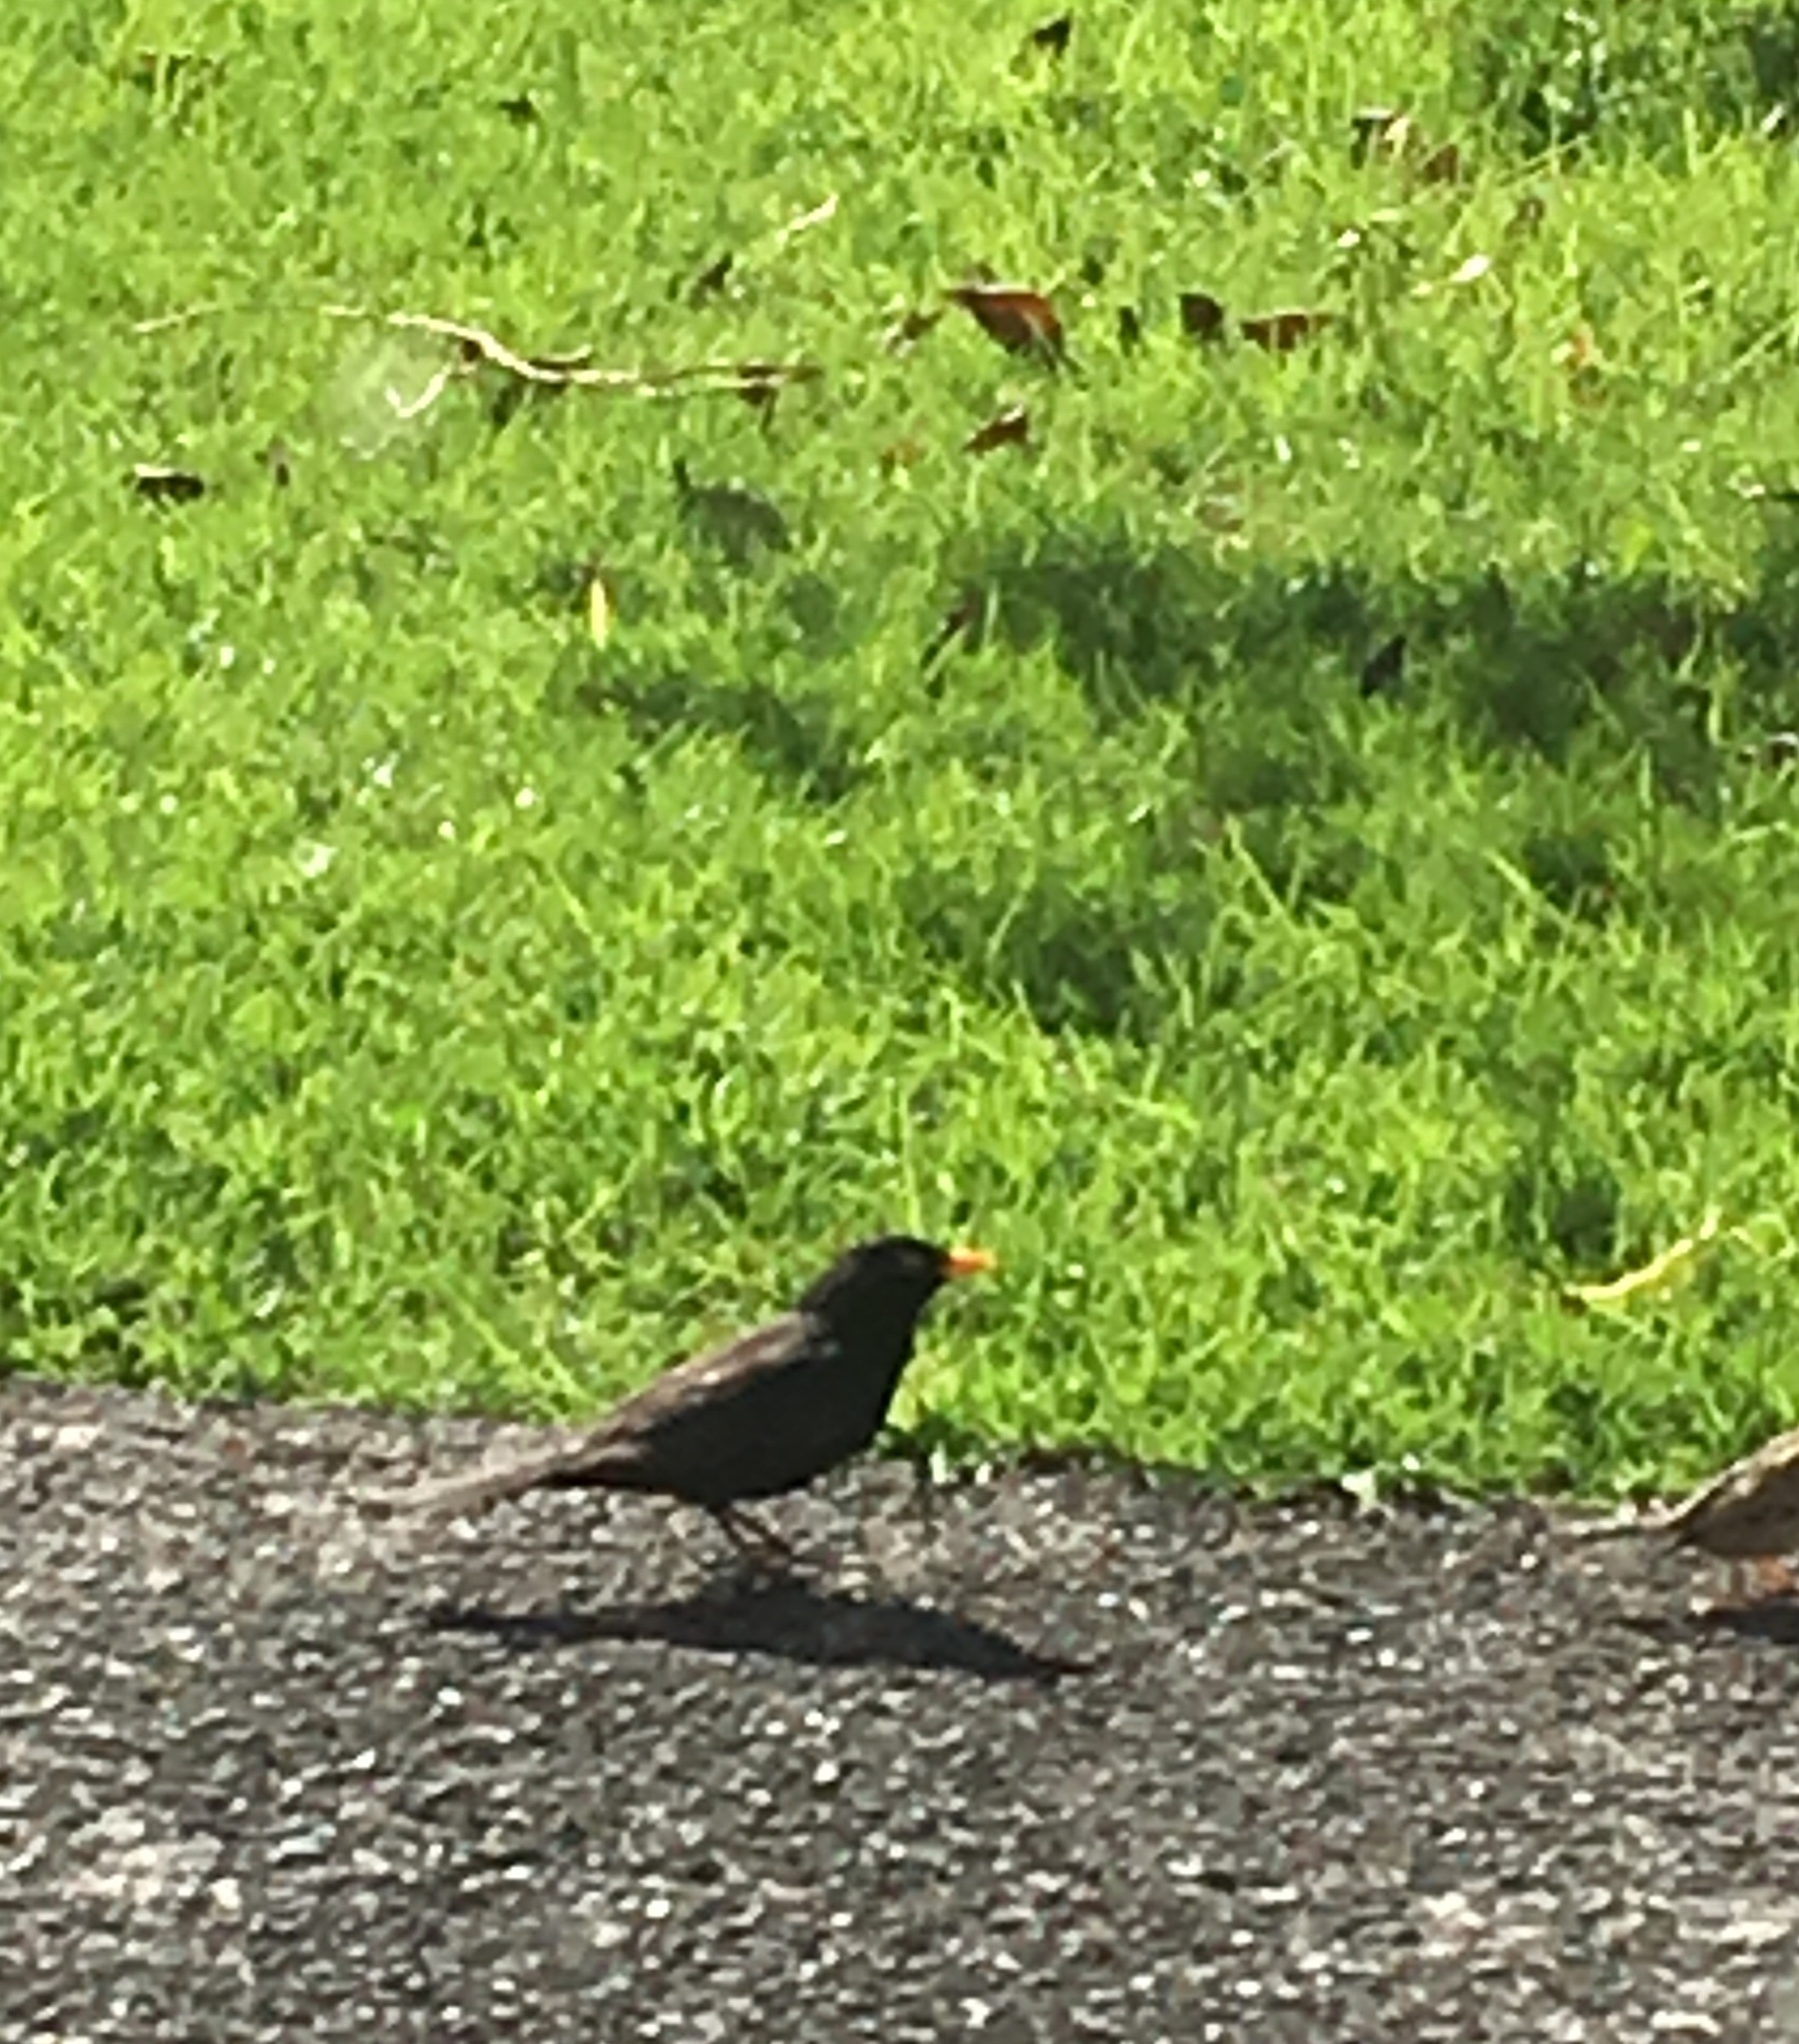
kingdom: Animalia
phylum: Chordata
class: Aves
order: Passeriformes
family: Turdidae
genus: Turdus
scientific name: Turdus merula
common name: Common blackbird
